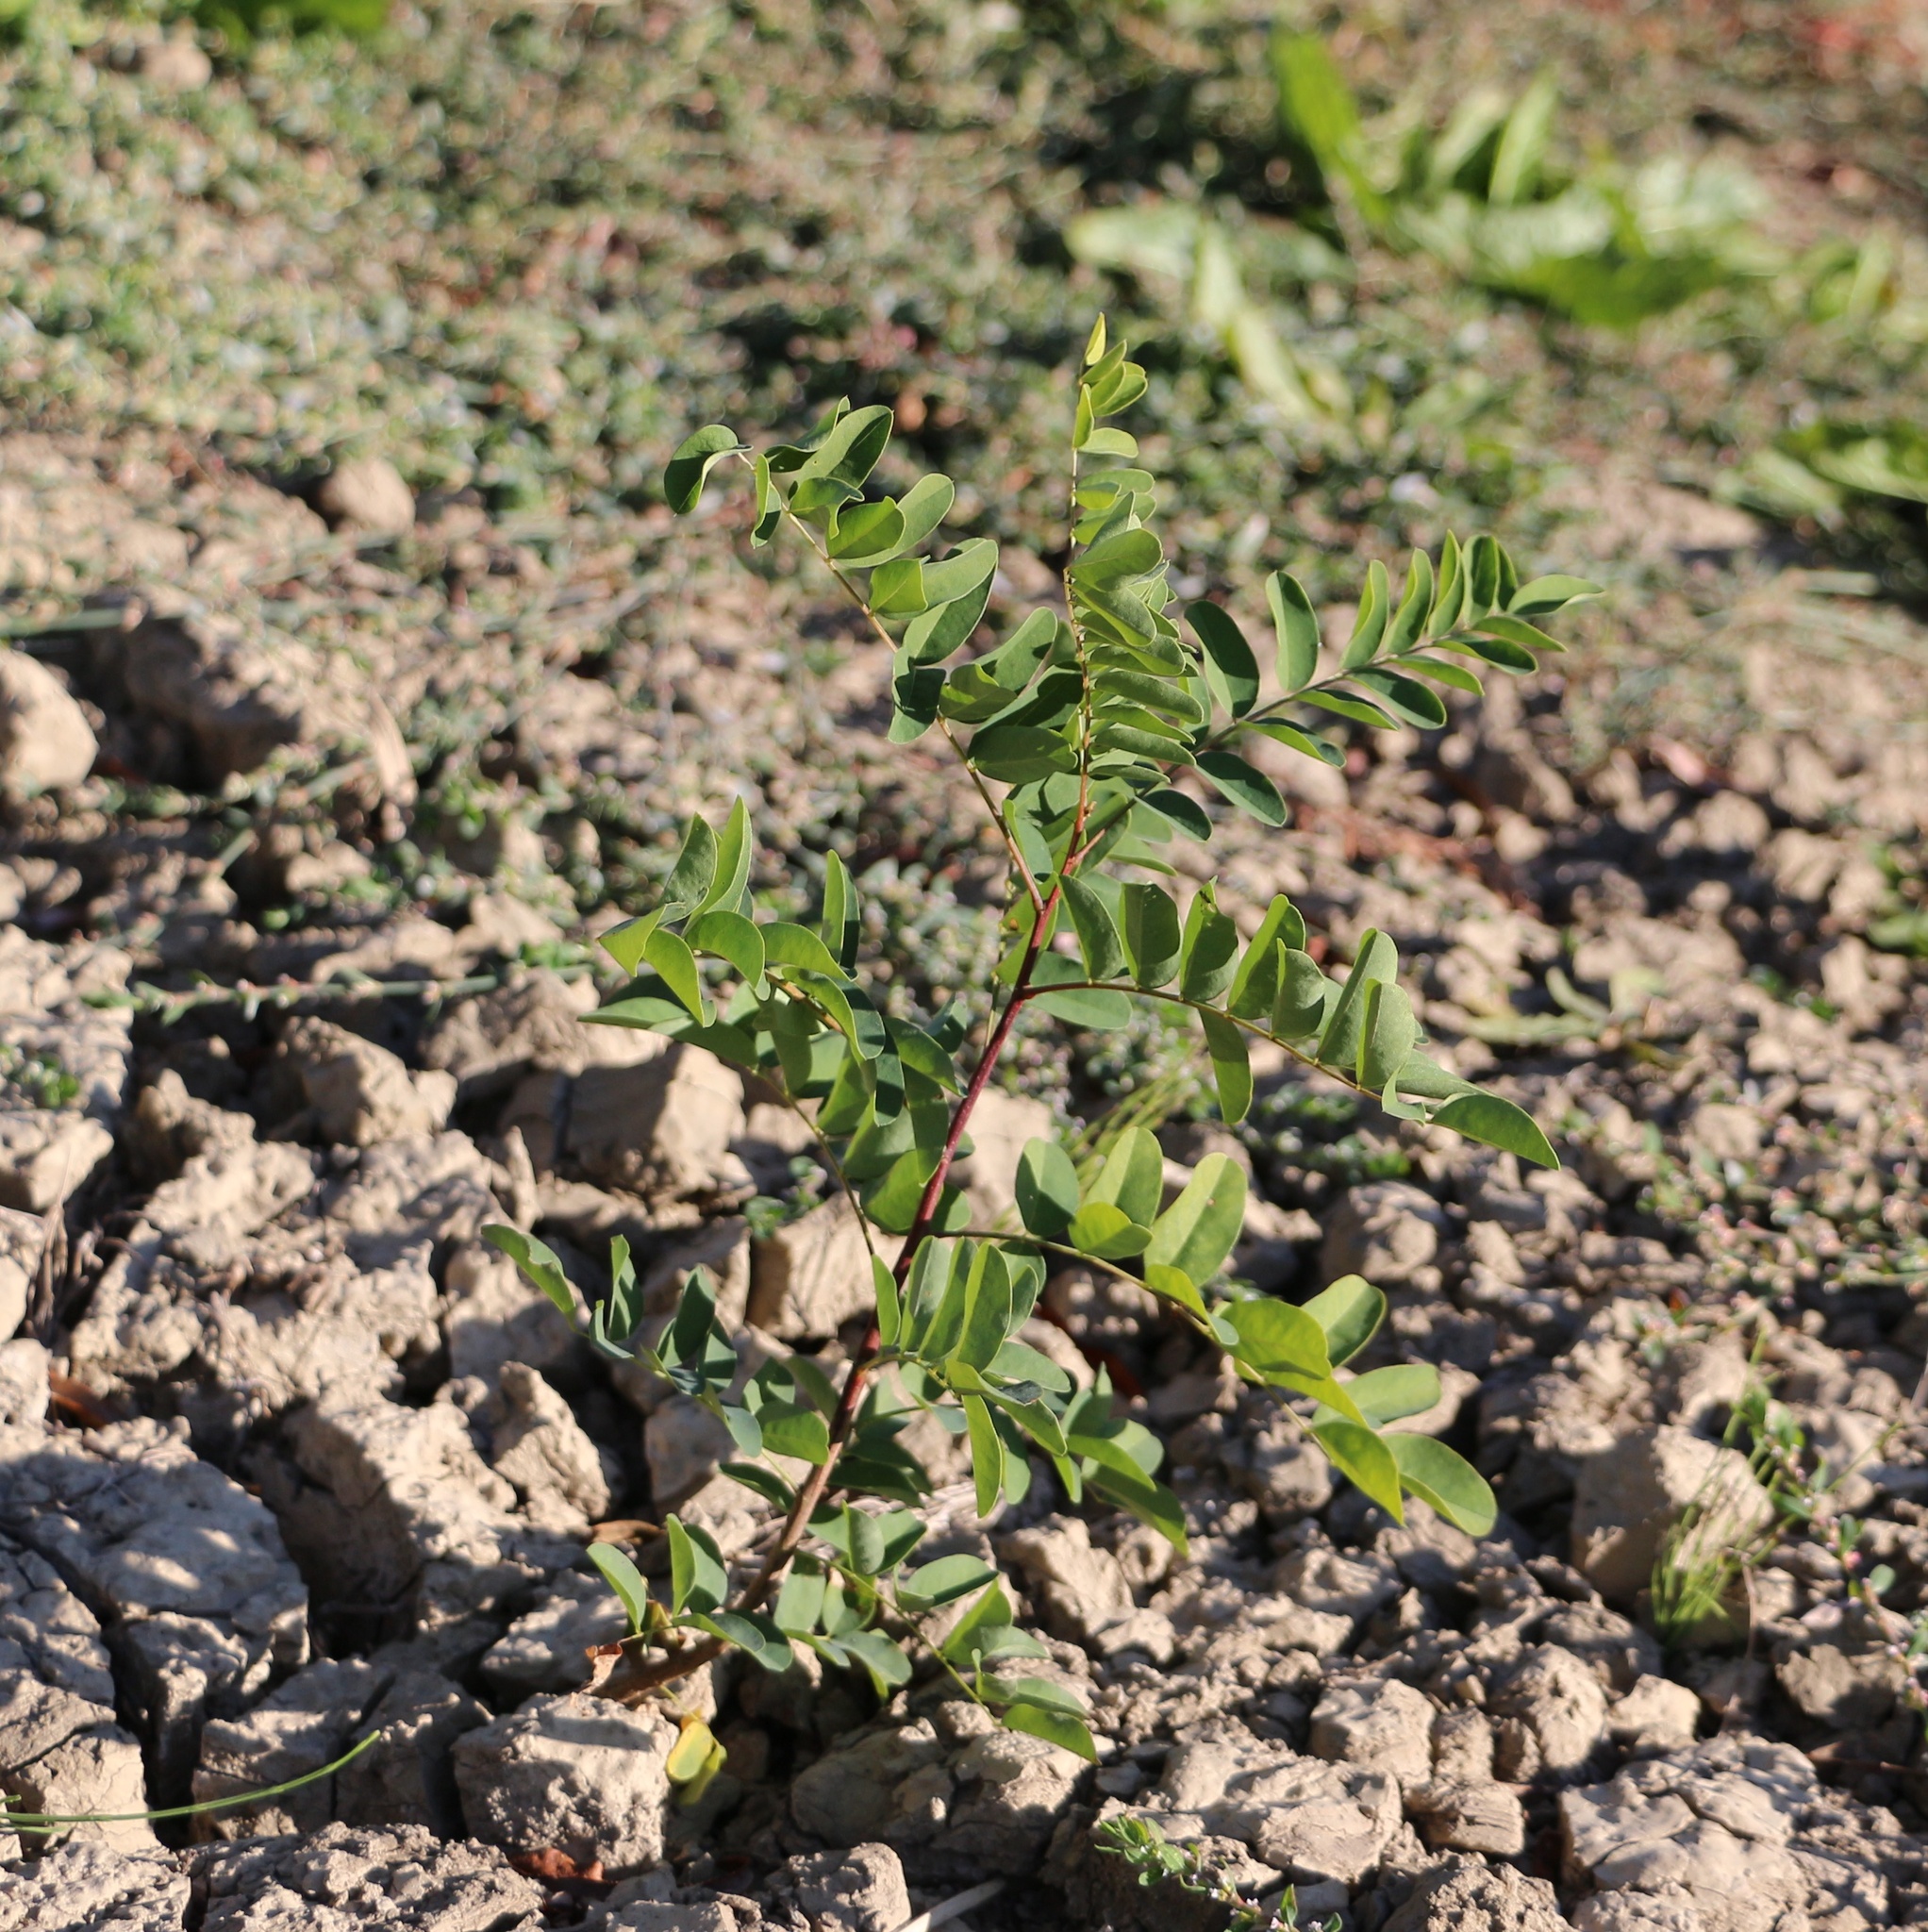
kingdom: Plantae
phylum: Tracheophyta
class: Magnoliopsida
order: Fabales
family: Fabaceae
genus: Amorpha
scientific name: Amorpha fruticosa
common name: False indigo
